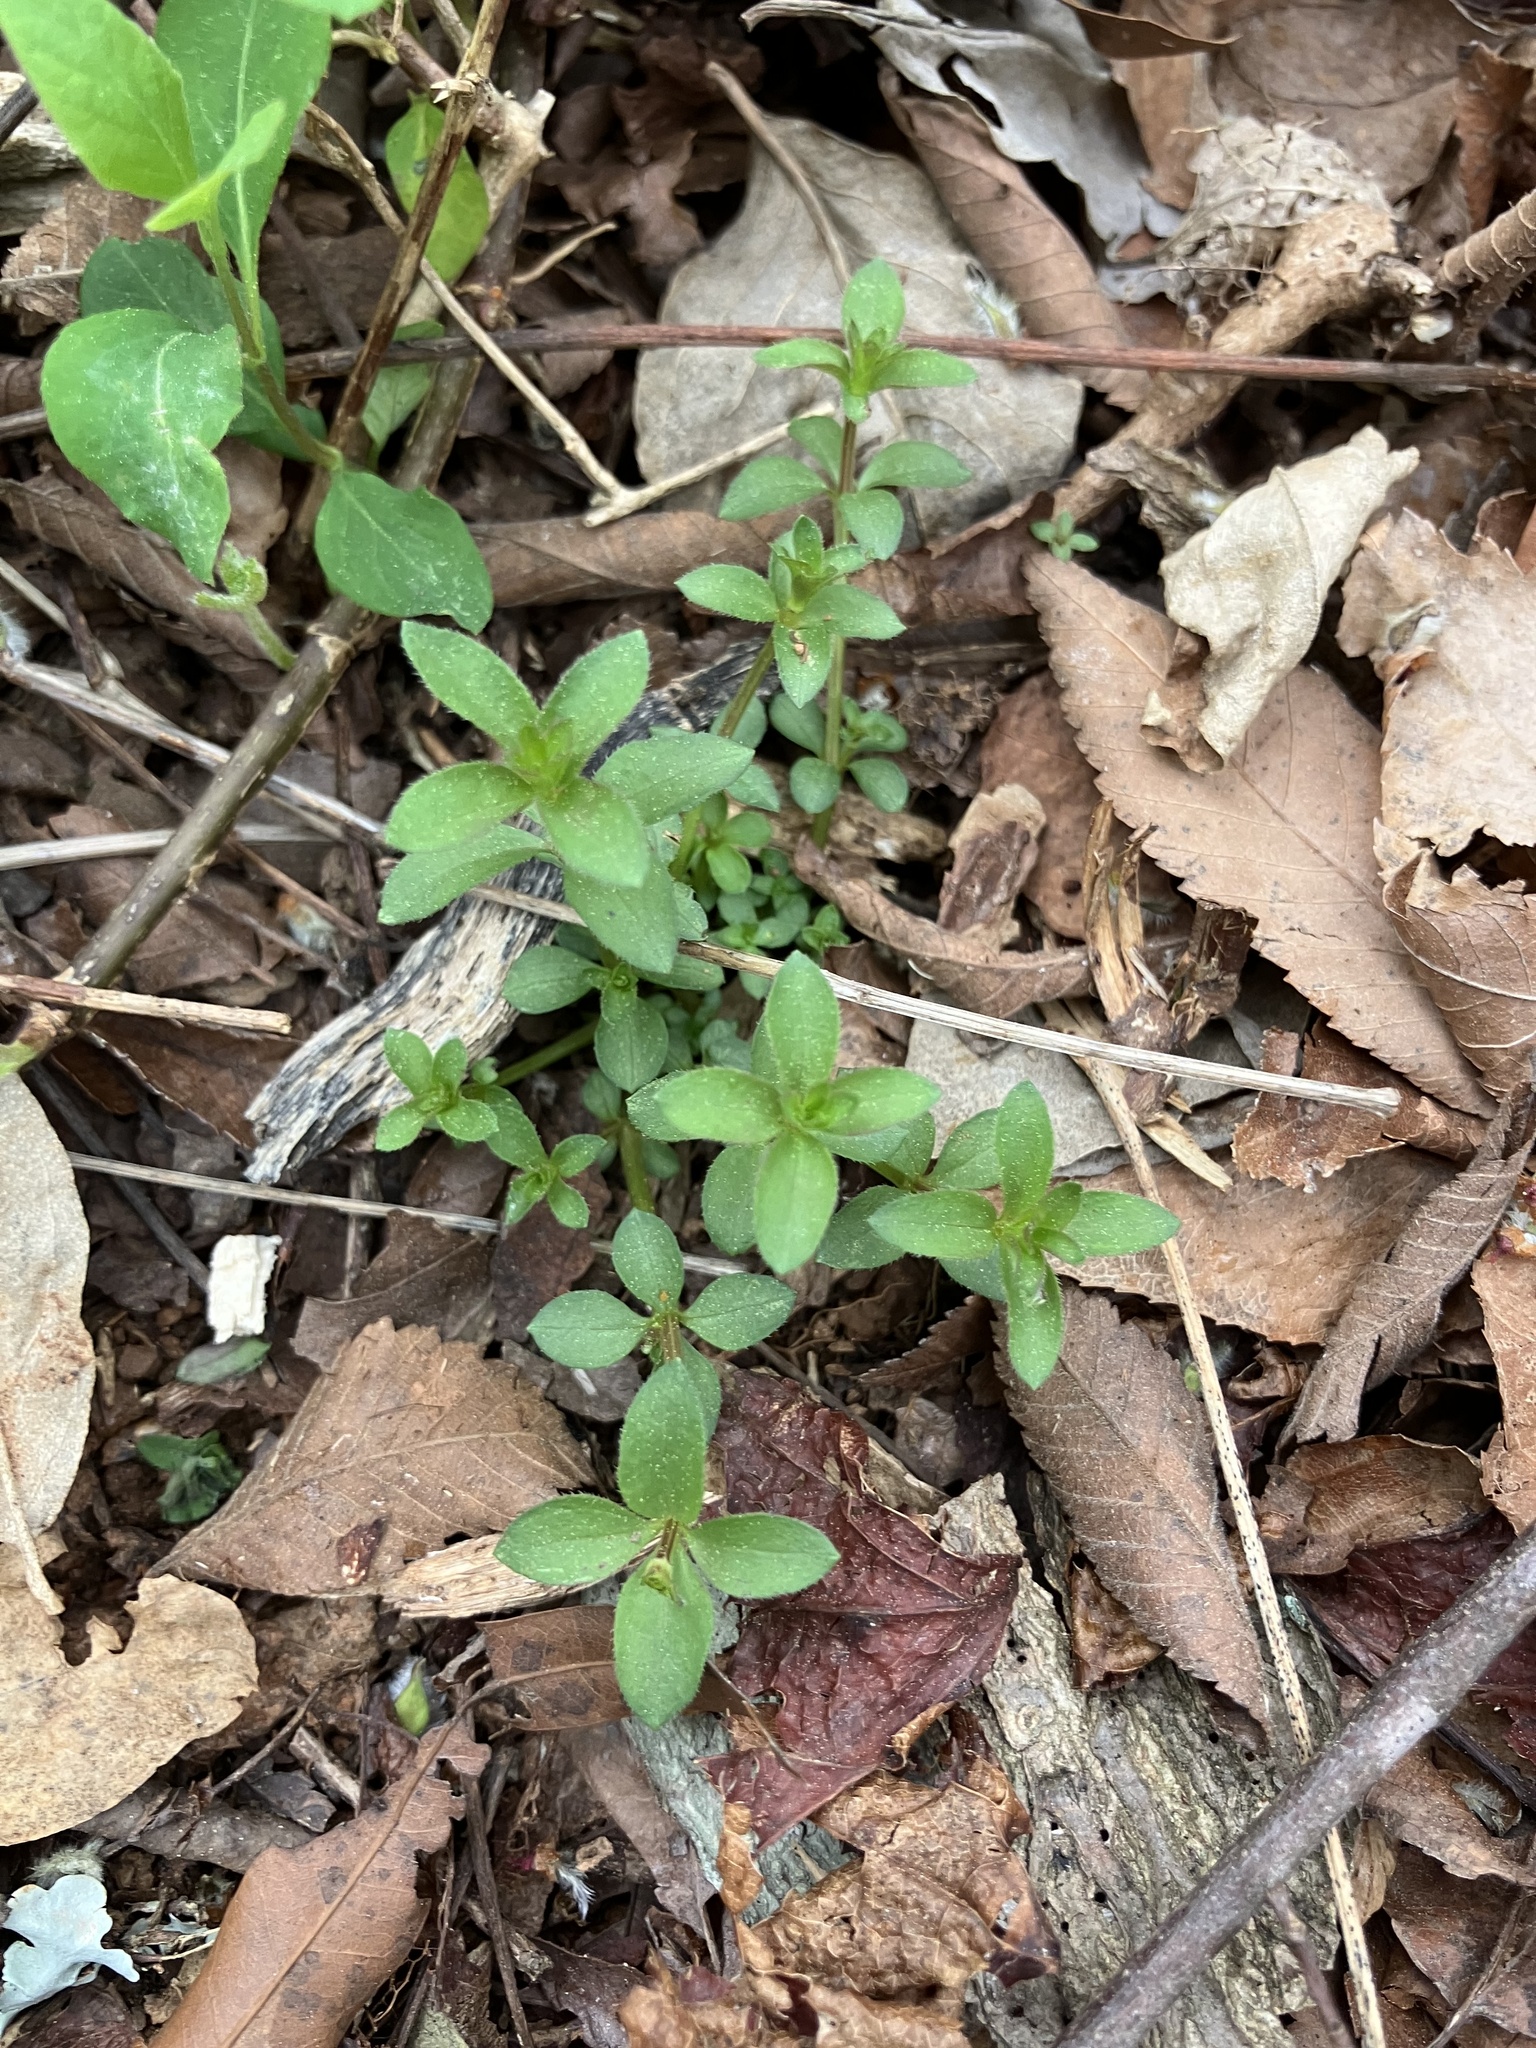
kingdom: Plantae
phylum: Tracheophyta
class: Magnoliopsida
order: Gentianales
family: Rubiaceae
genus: Galium
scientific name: Galium pilosum
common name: Hairy bedstraw
